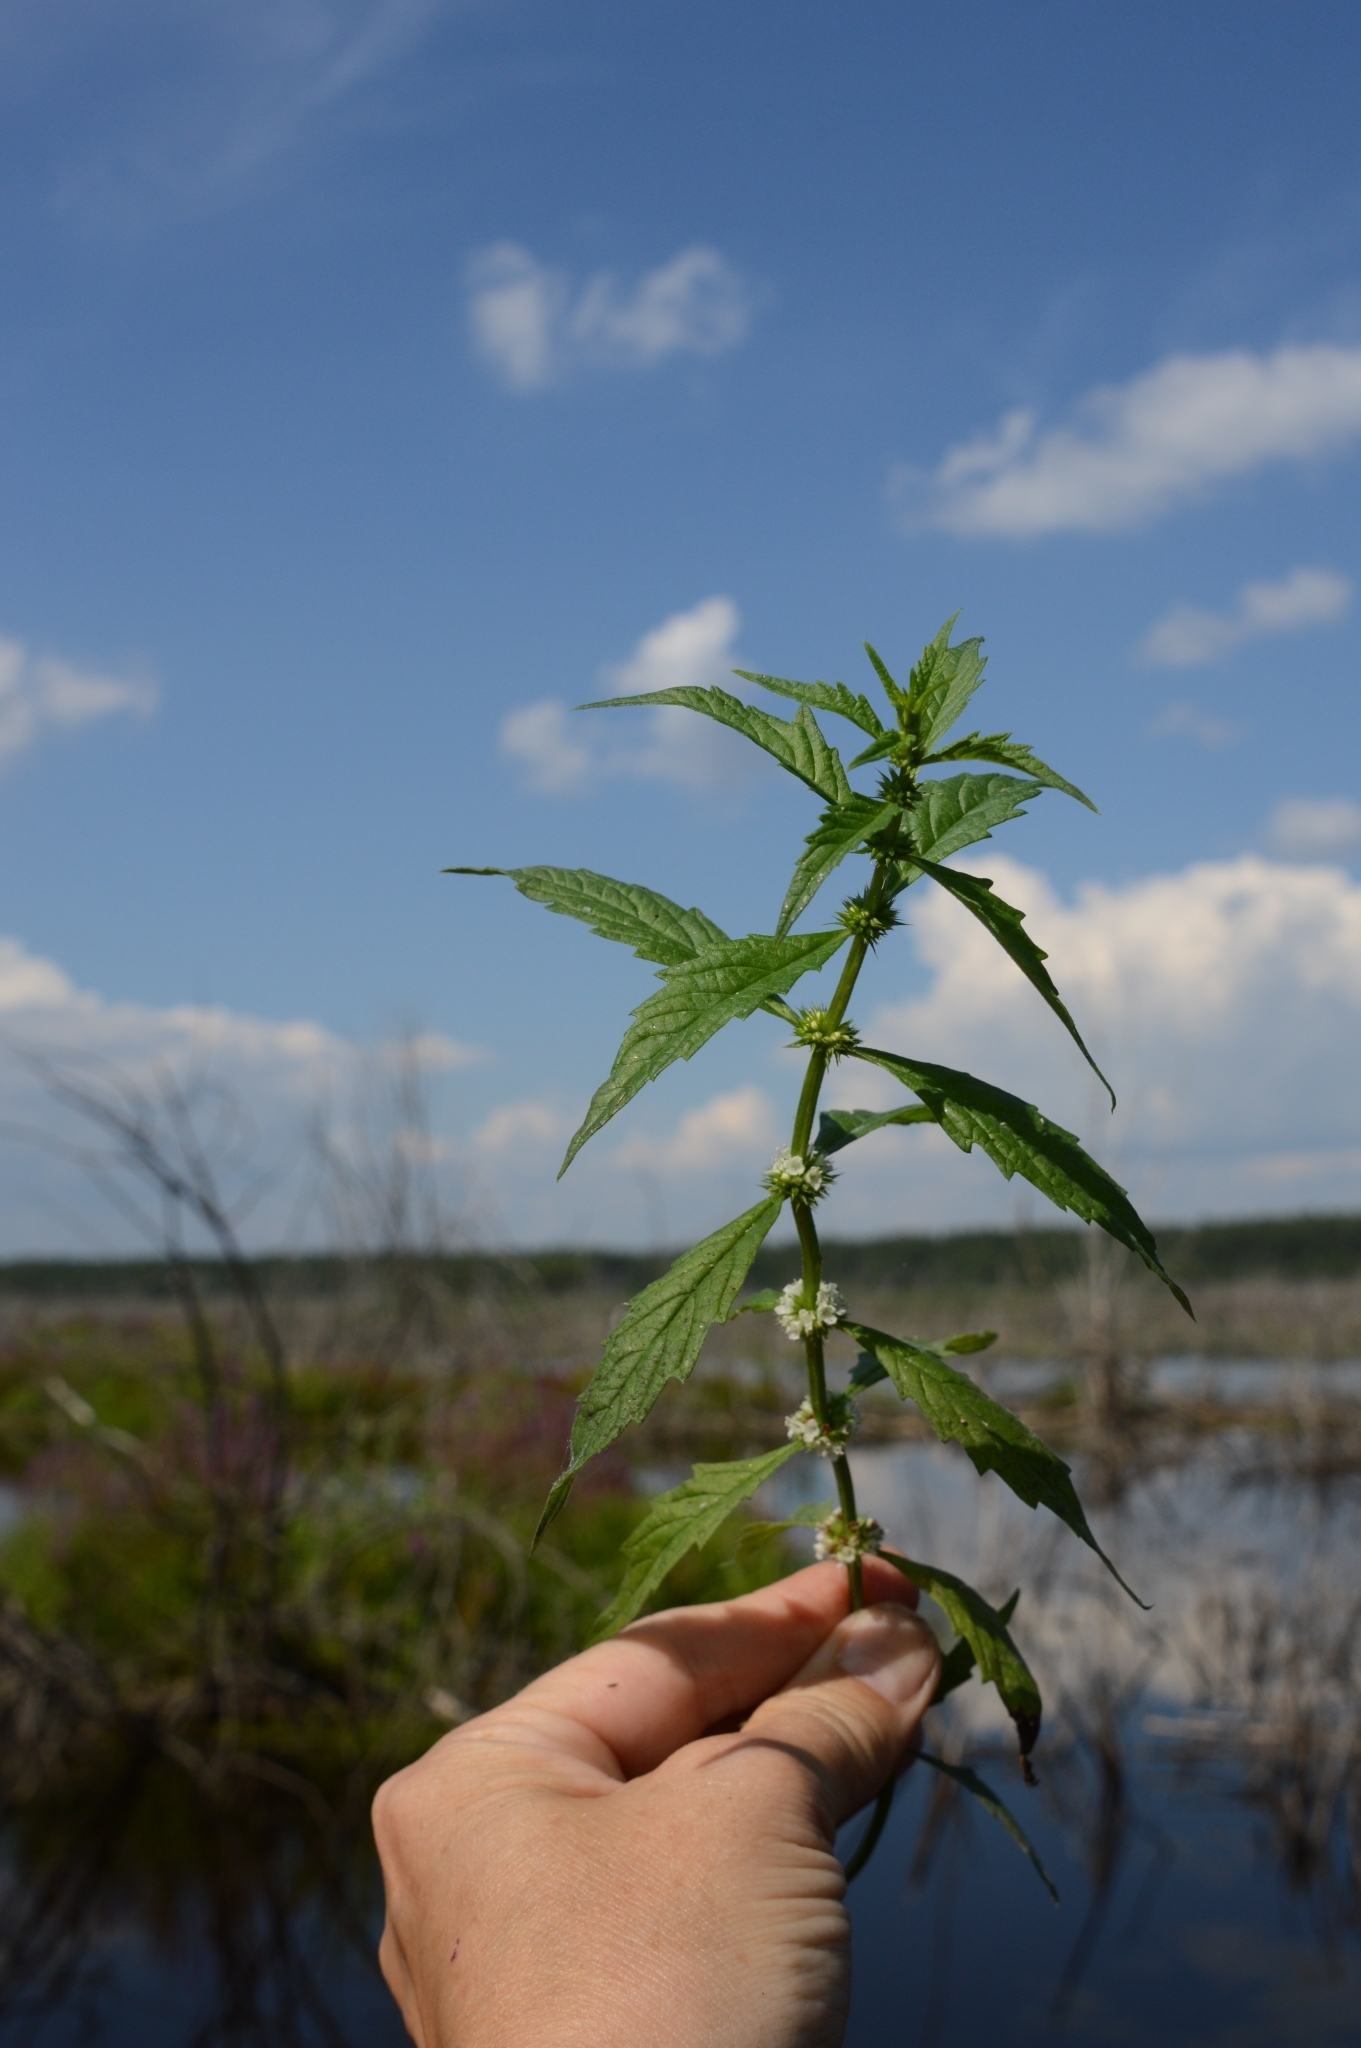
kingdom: Plantae
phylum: Tracheophyta
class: Magnoliopsida
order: Lamiales
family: Lamiaceae
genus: Lycopus
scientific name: Lycopus europaeus
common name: European bugleweed
